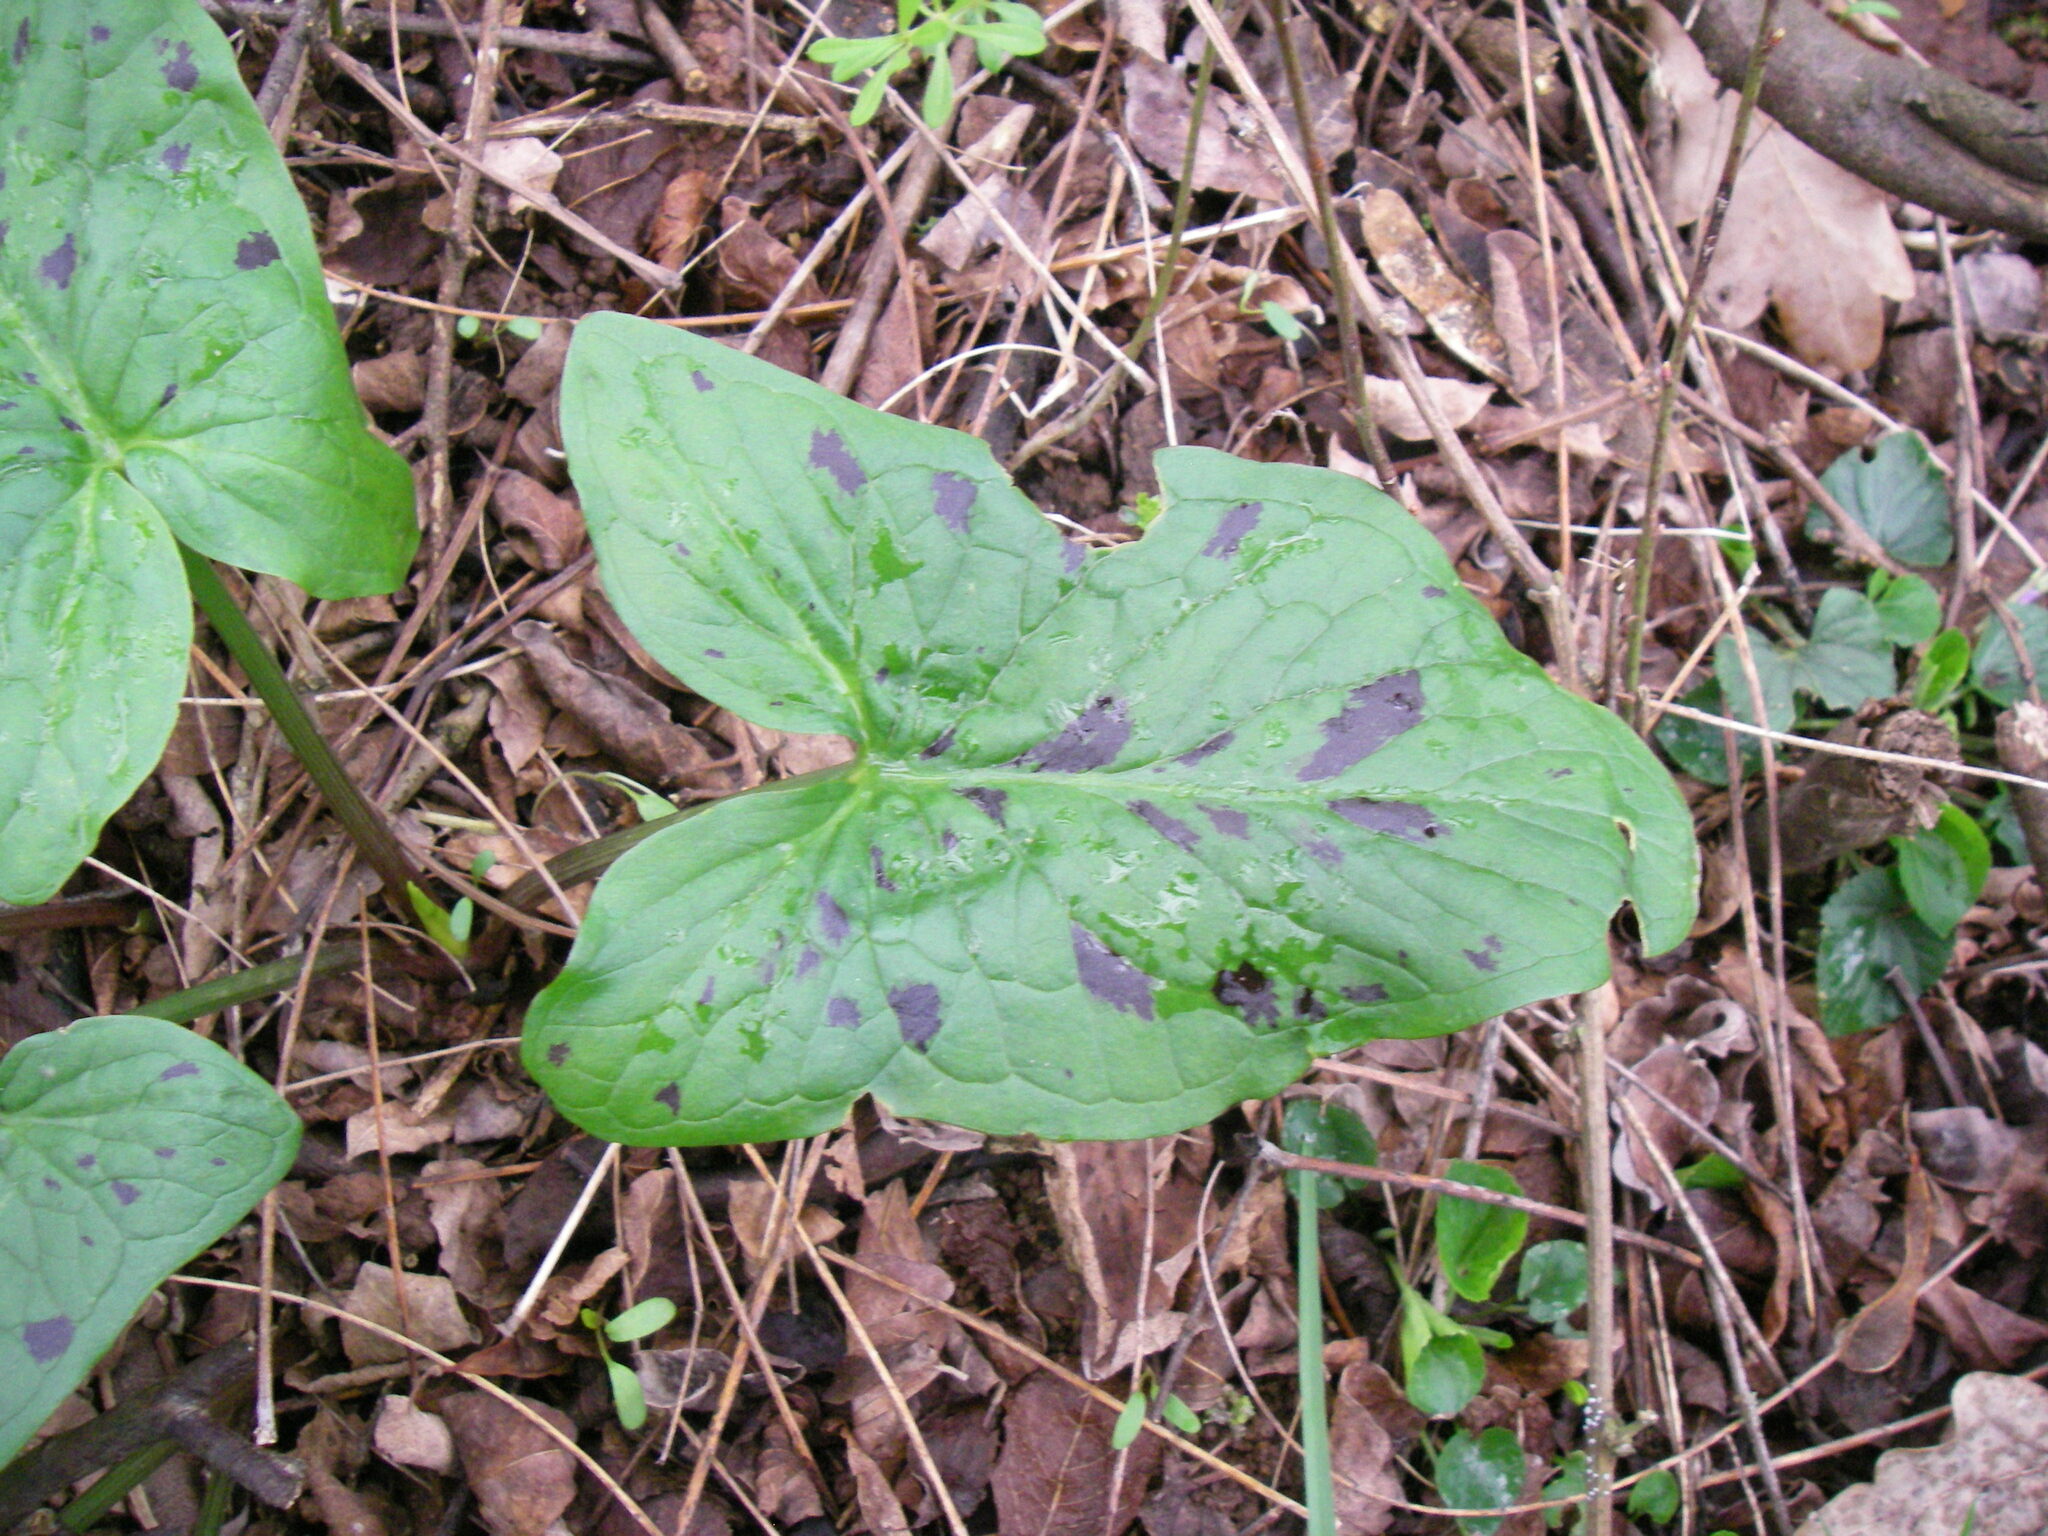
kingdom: Plantae
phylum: Tracheophyta
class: Liliopsida
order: Alismatales
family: Araceae
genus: Arum
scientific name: Arum maculatum
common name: Lords-and-ladies
